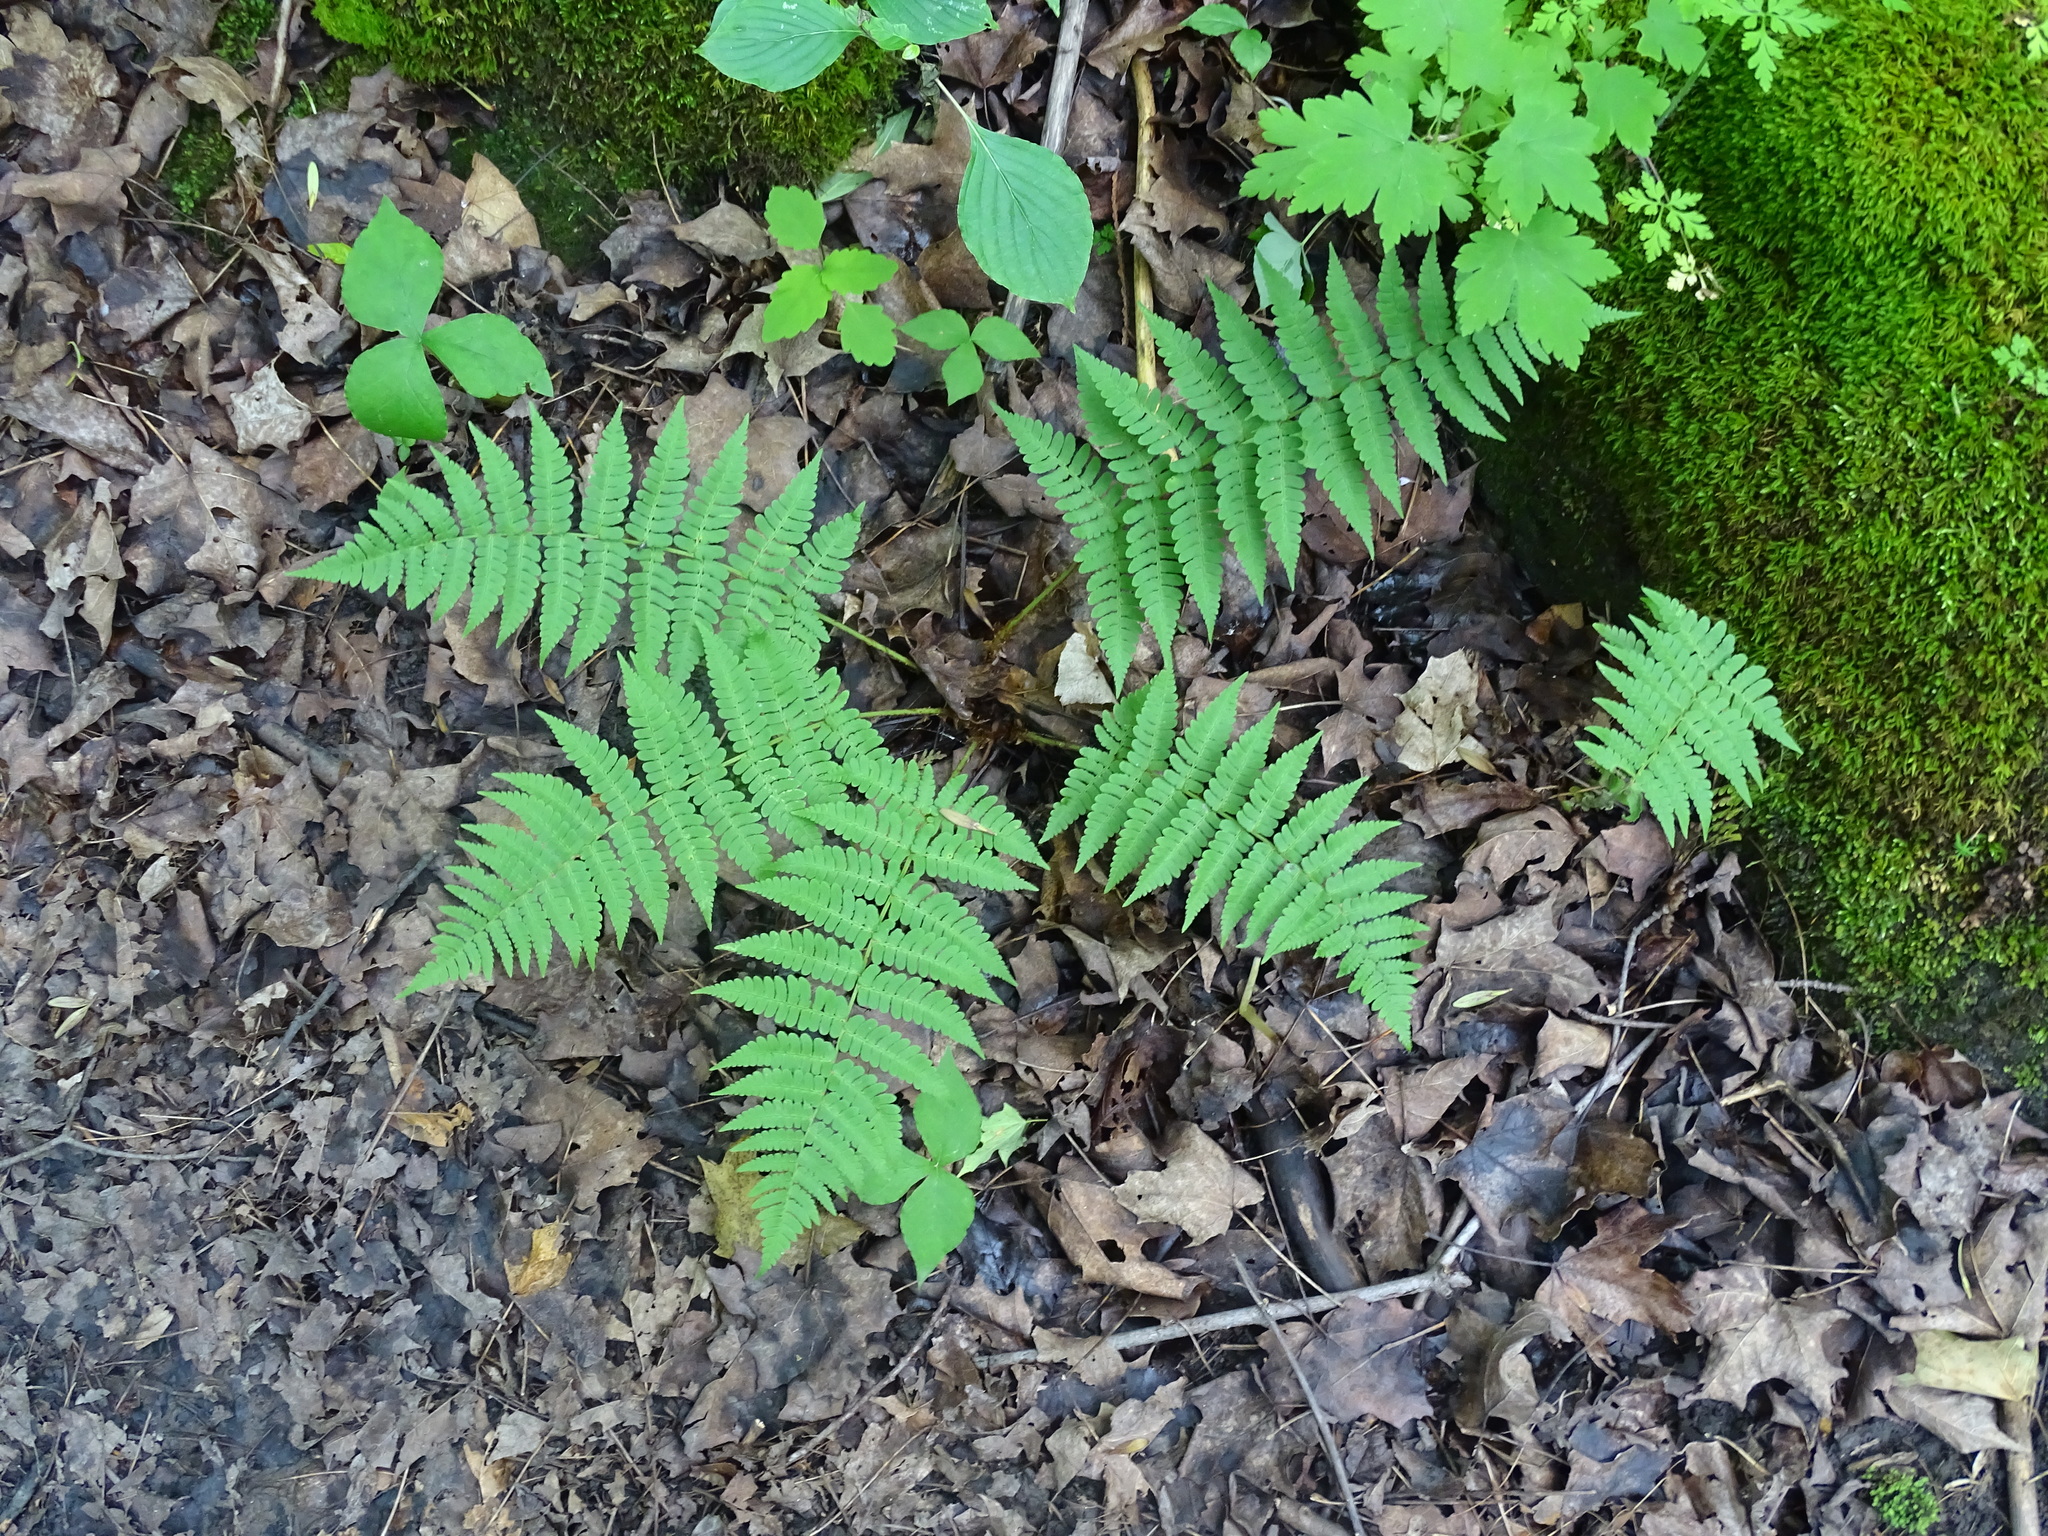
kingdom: Plantae
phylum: Tracheophyta
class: Polypodiopsida
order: Polypodiales
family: Dryopteridaceae
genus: Dryopteris
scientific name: Dryopteris marginalis
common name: Marginal wood fern
